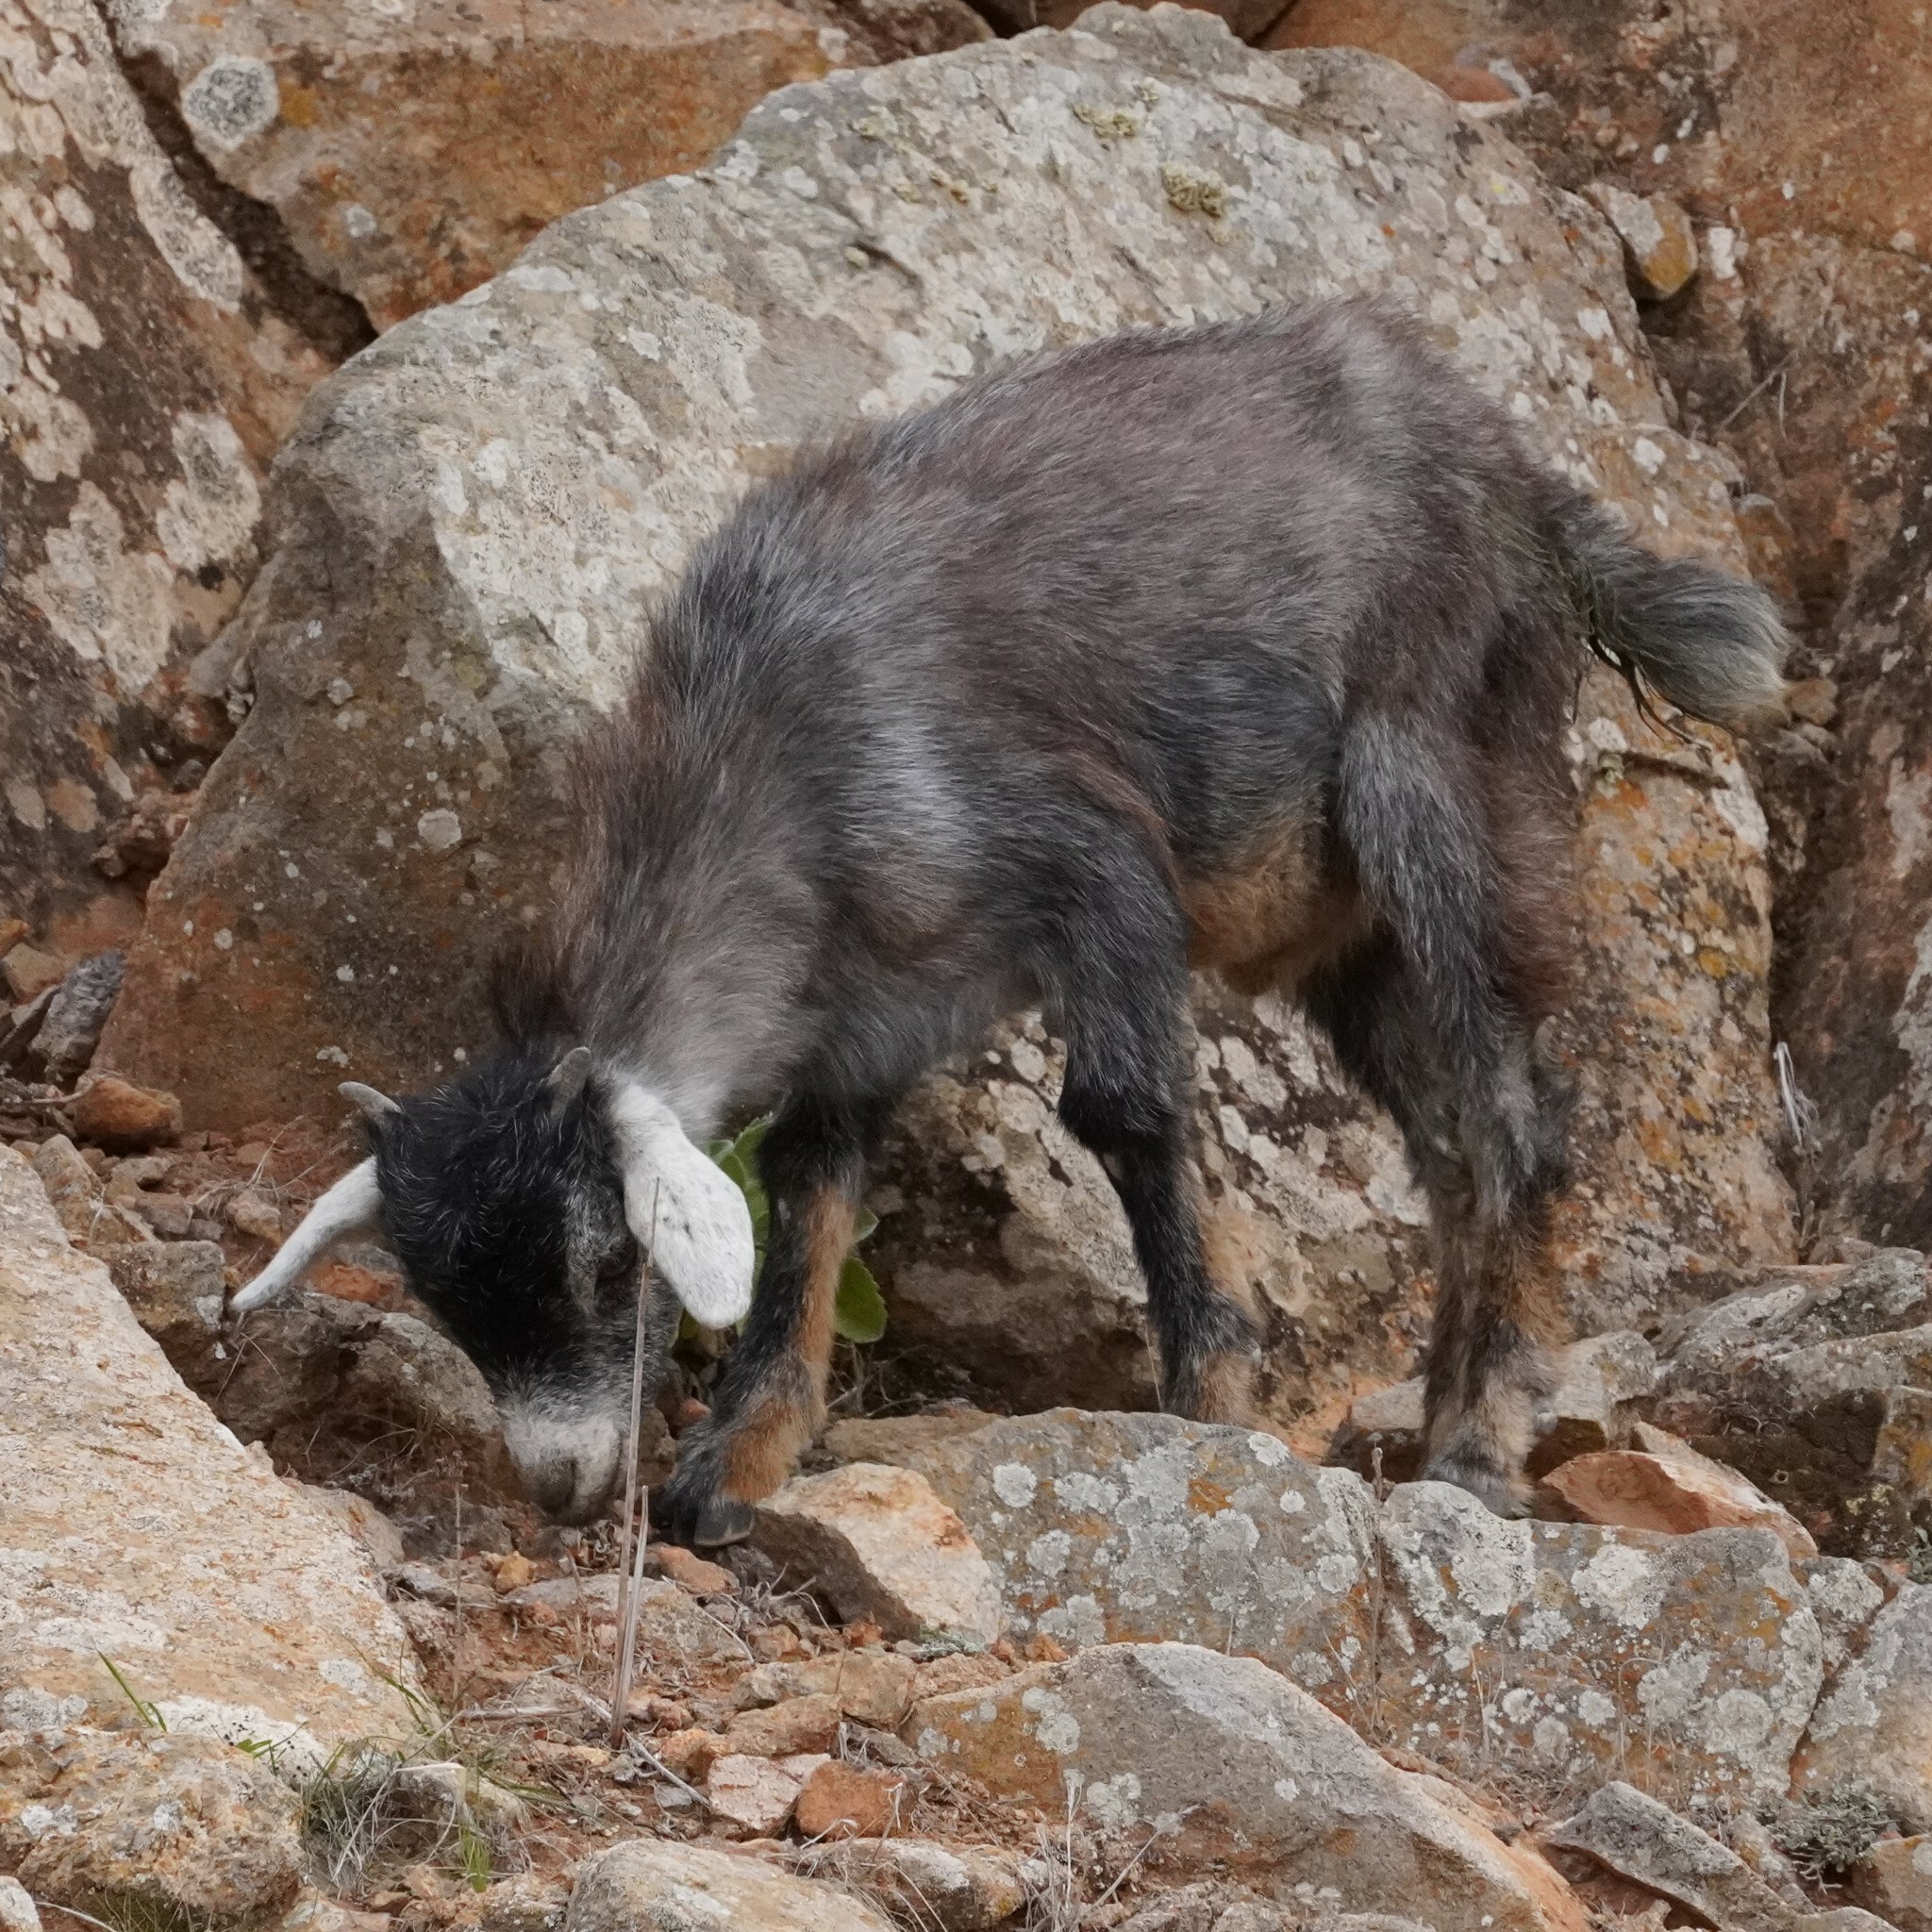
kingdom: Animalia
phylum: Chordata
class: Mammalia
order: Artiodactyla
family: Bovidae
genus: Capra
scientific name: Capra hircus
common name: Domestic goat
